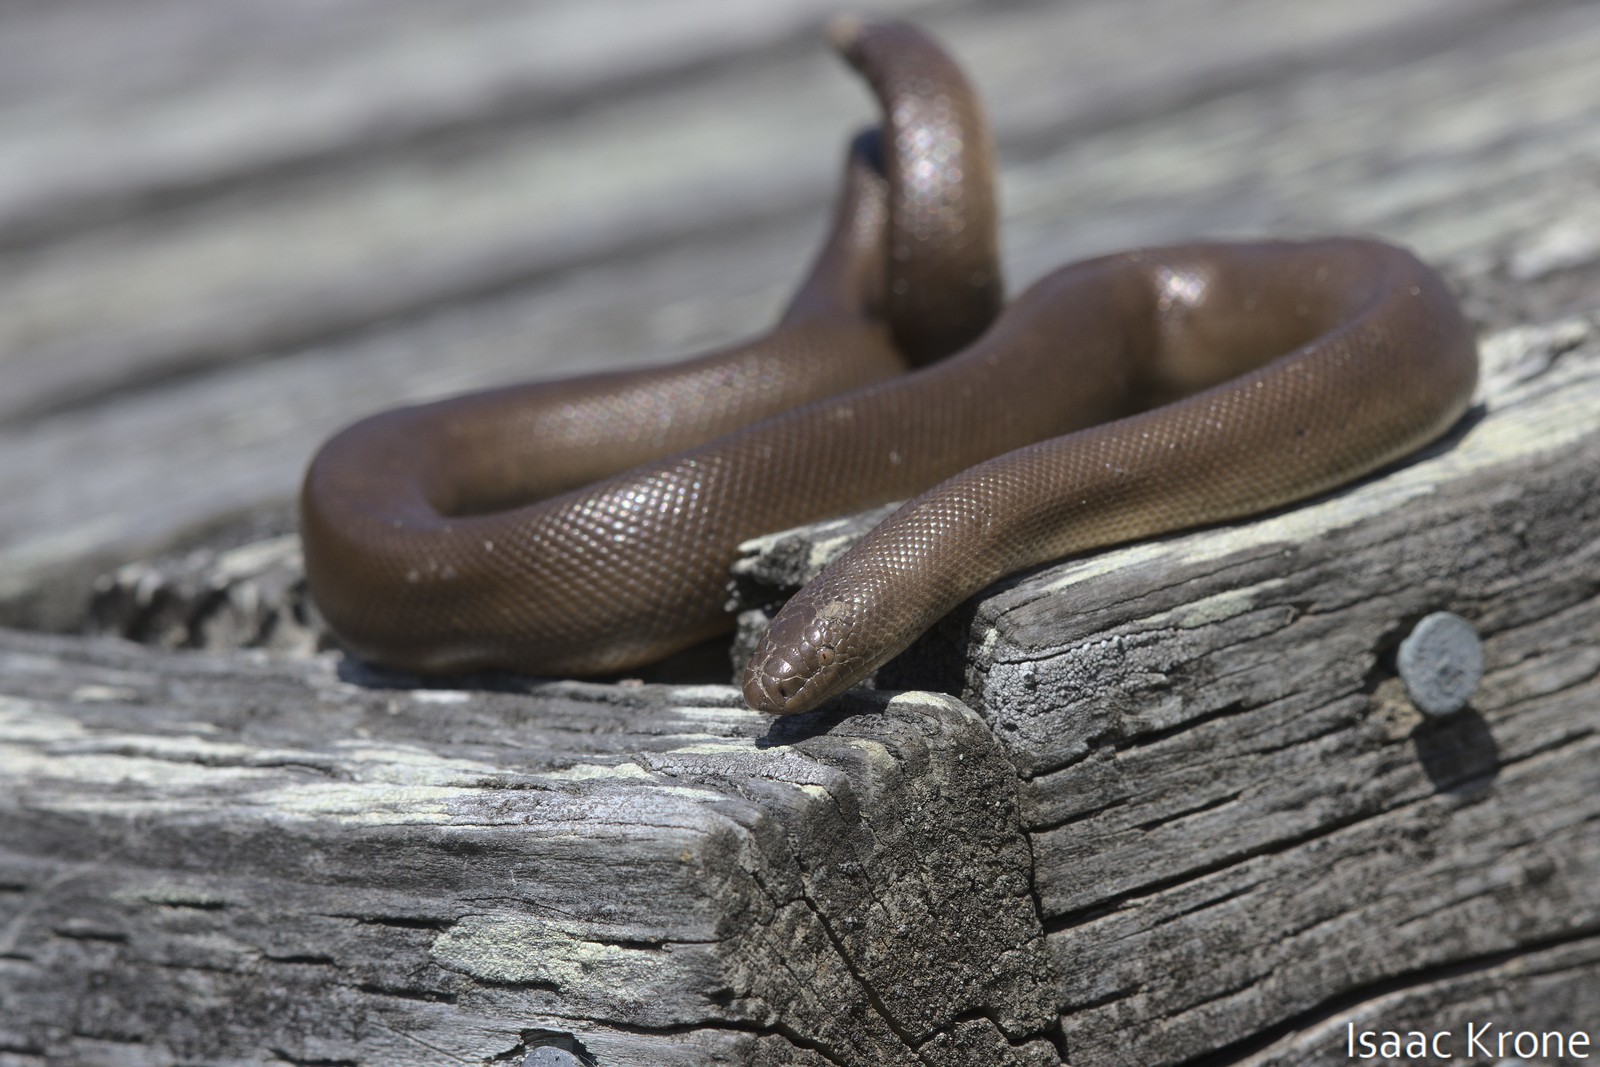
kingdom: Animalia
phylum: Chordata
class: Squamata
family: Boidae
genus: Charina
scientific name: Charina bottae
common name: Northern rubber boa
